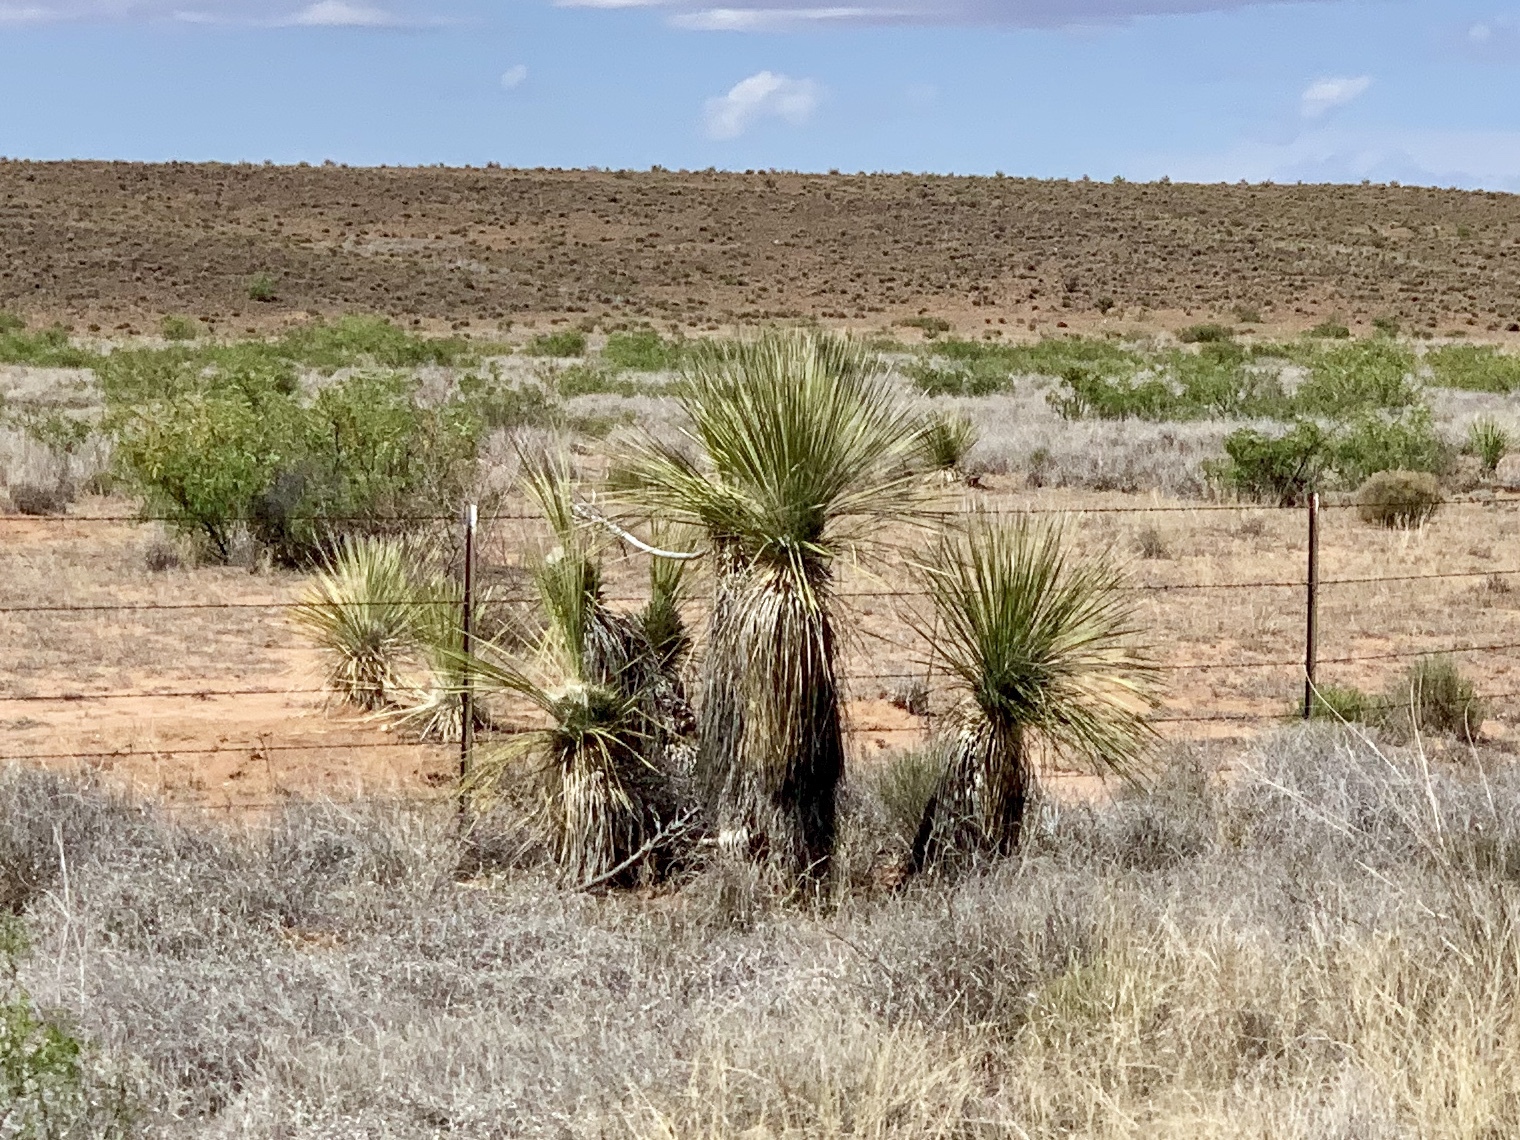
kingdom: Plantae
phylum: Tracheophyta
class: Liliopsida
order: Asparagales
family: Asparagaceae
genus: Yucca
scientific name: Yucca elata
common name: Palmella
